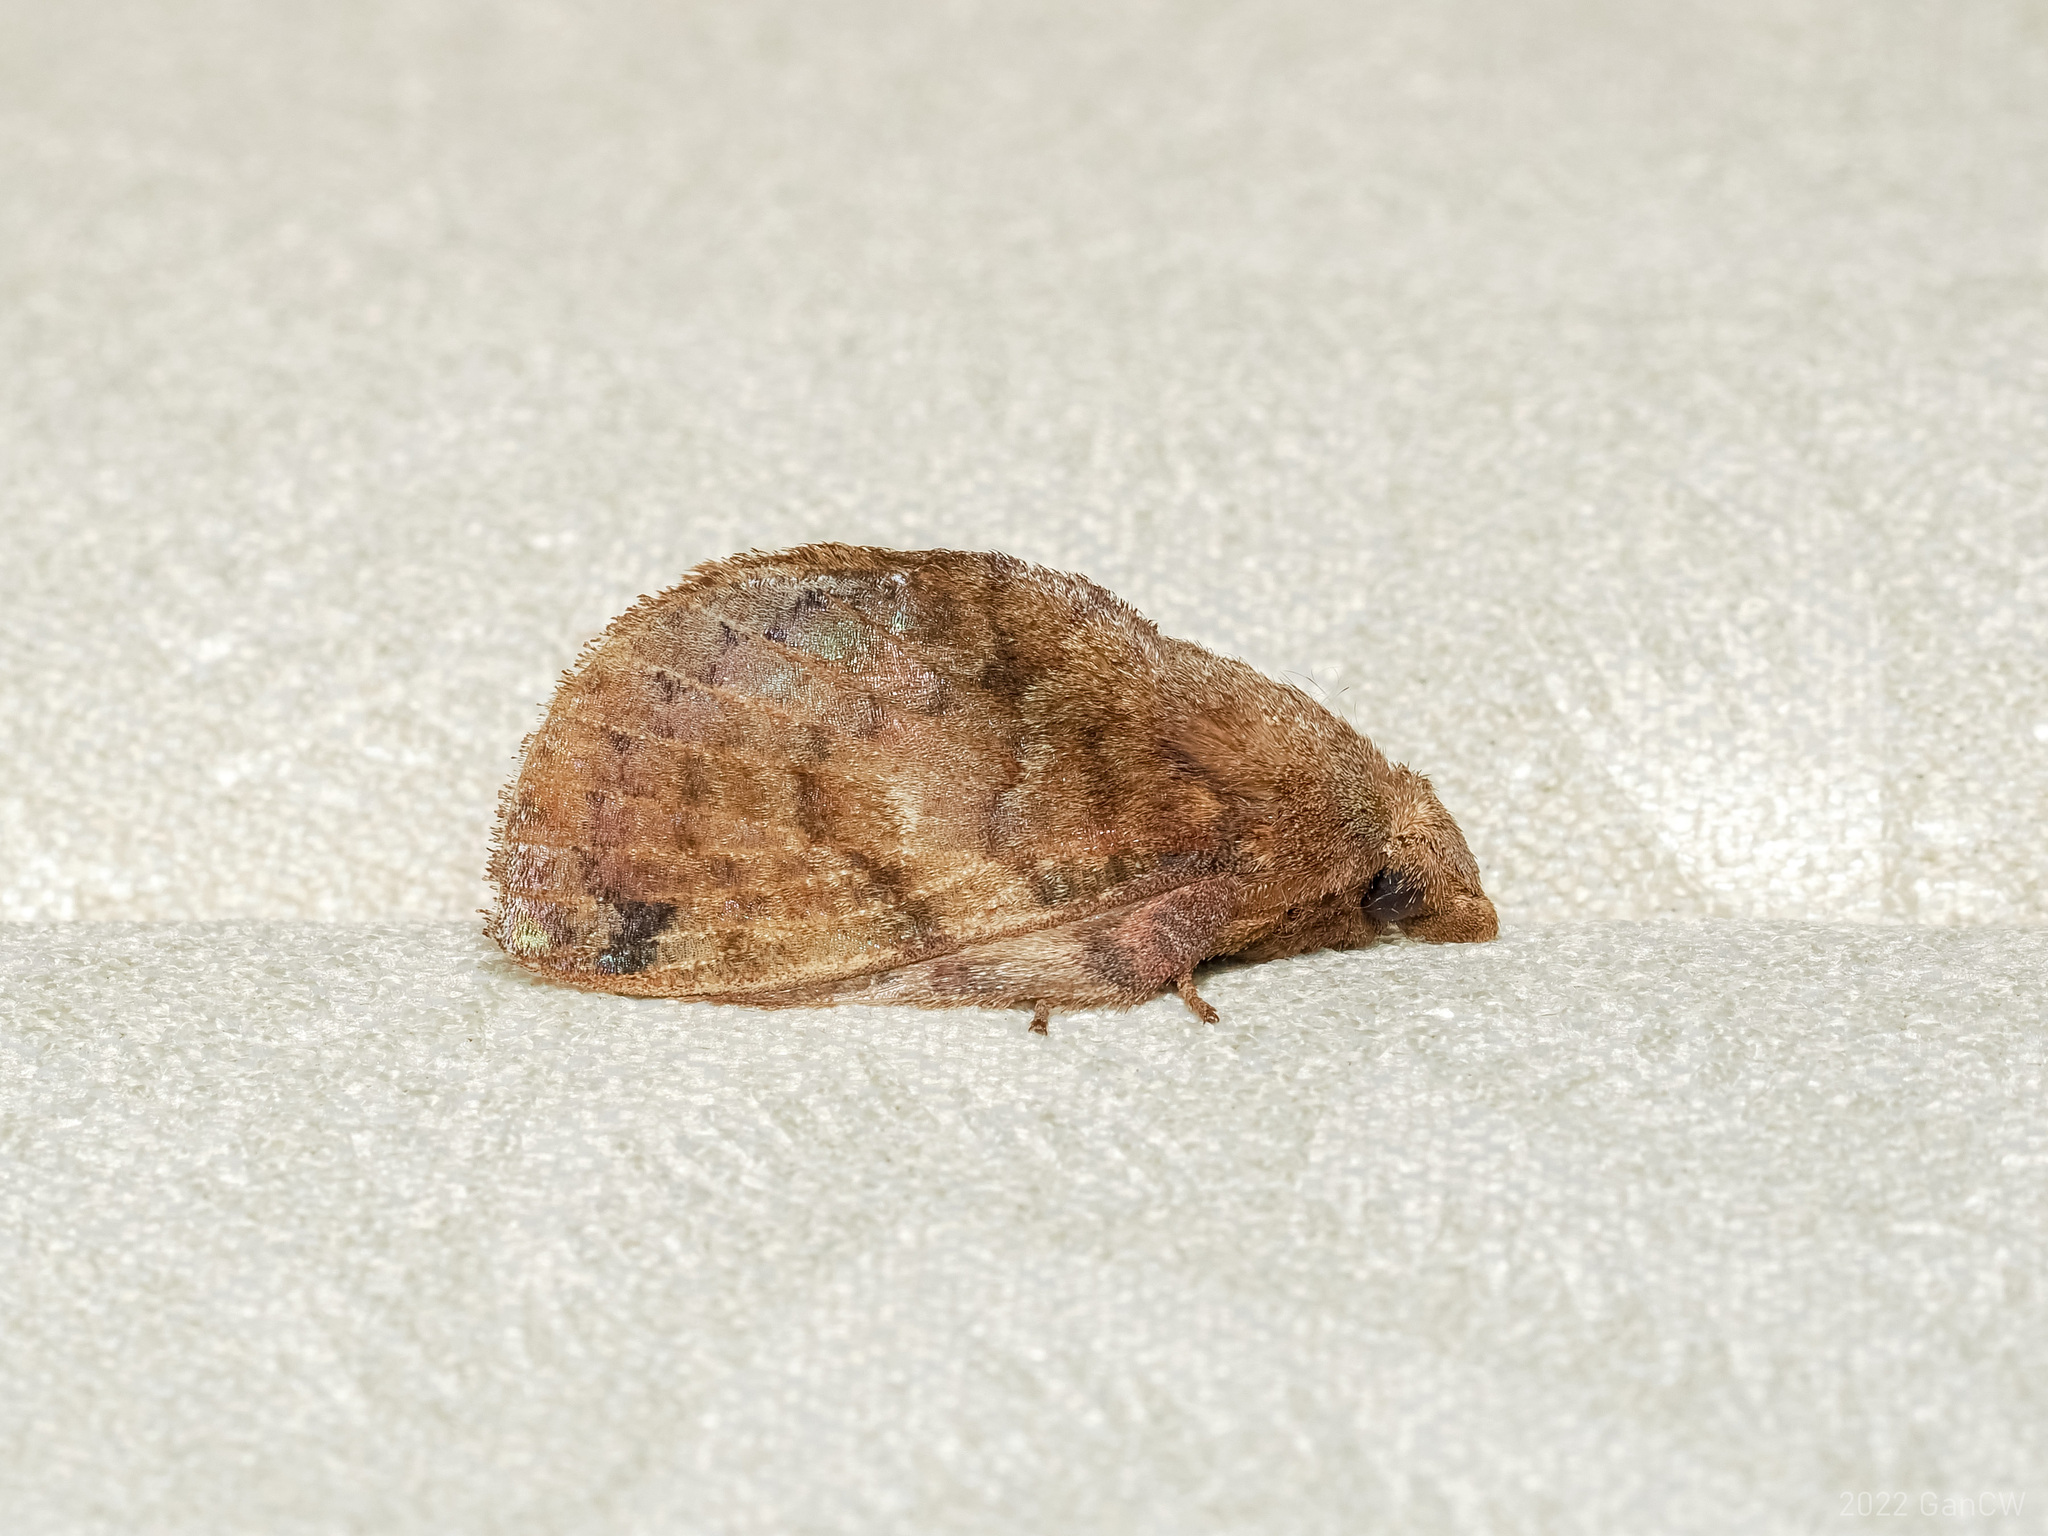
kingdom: Animalia
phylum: Arthropoda
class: Insecta
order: Lepidoptera
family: Lasiocampidae
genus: Micropacha
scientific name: Micropacha roepkei
